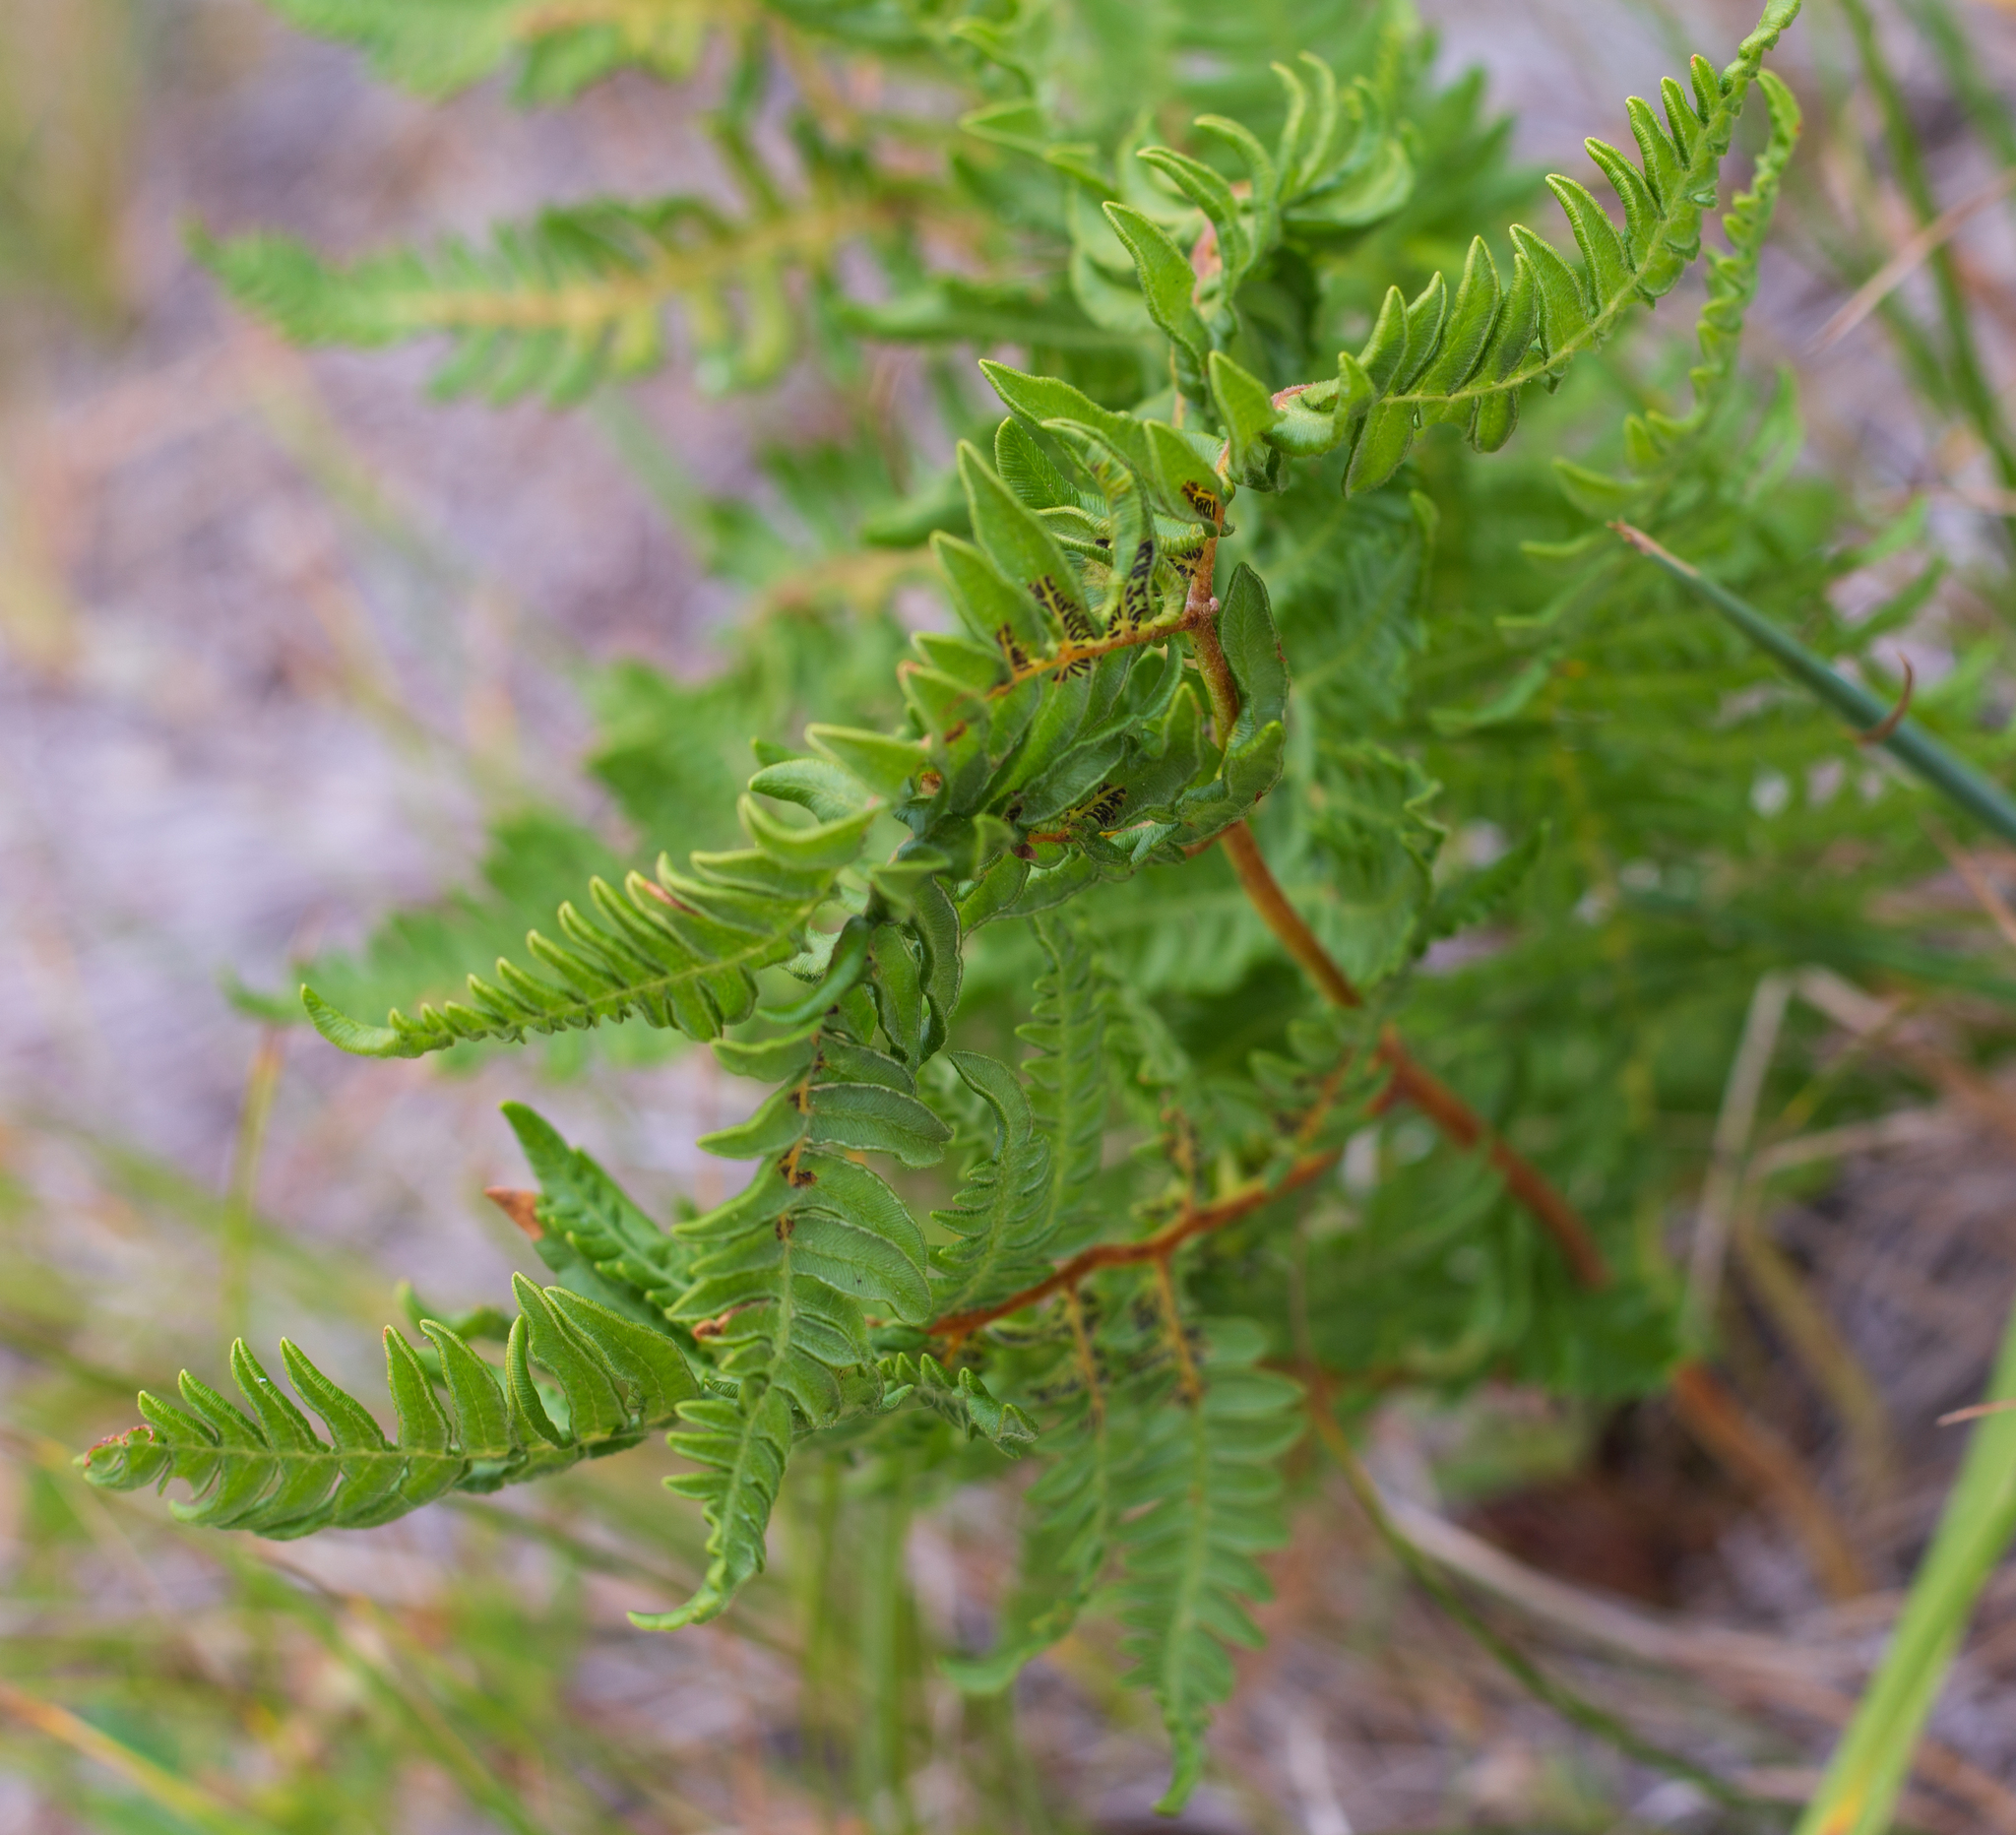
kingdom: Plantae
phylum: Tracheophyta
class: Polypodiopsida
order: Polypodiales
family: Dennstaedtiaceae
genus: Pteridium
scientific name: Pteridium aquilinum
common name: Bracken
